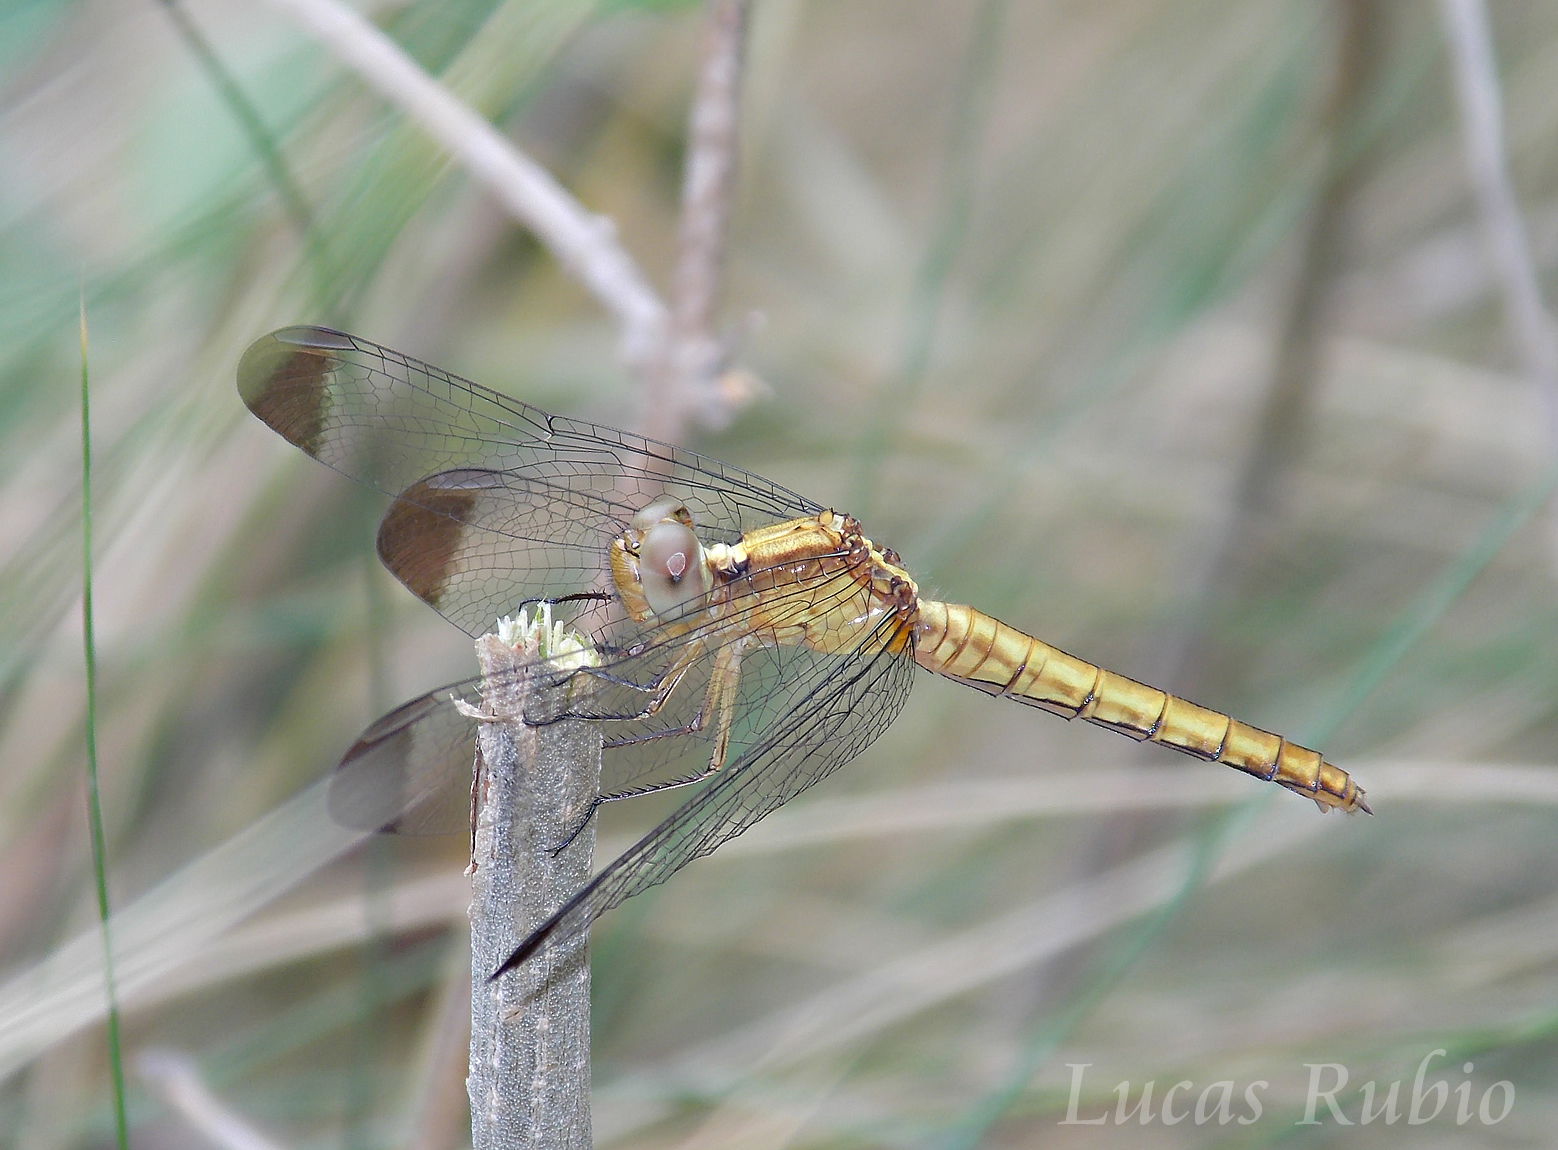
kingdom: Animalia
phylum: Arthropoda
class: Insecta
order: Odonata
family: Libellulidae
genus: Erythrodiplax
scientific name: Erythrodiplax atroterminata
